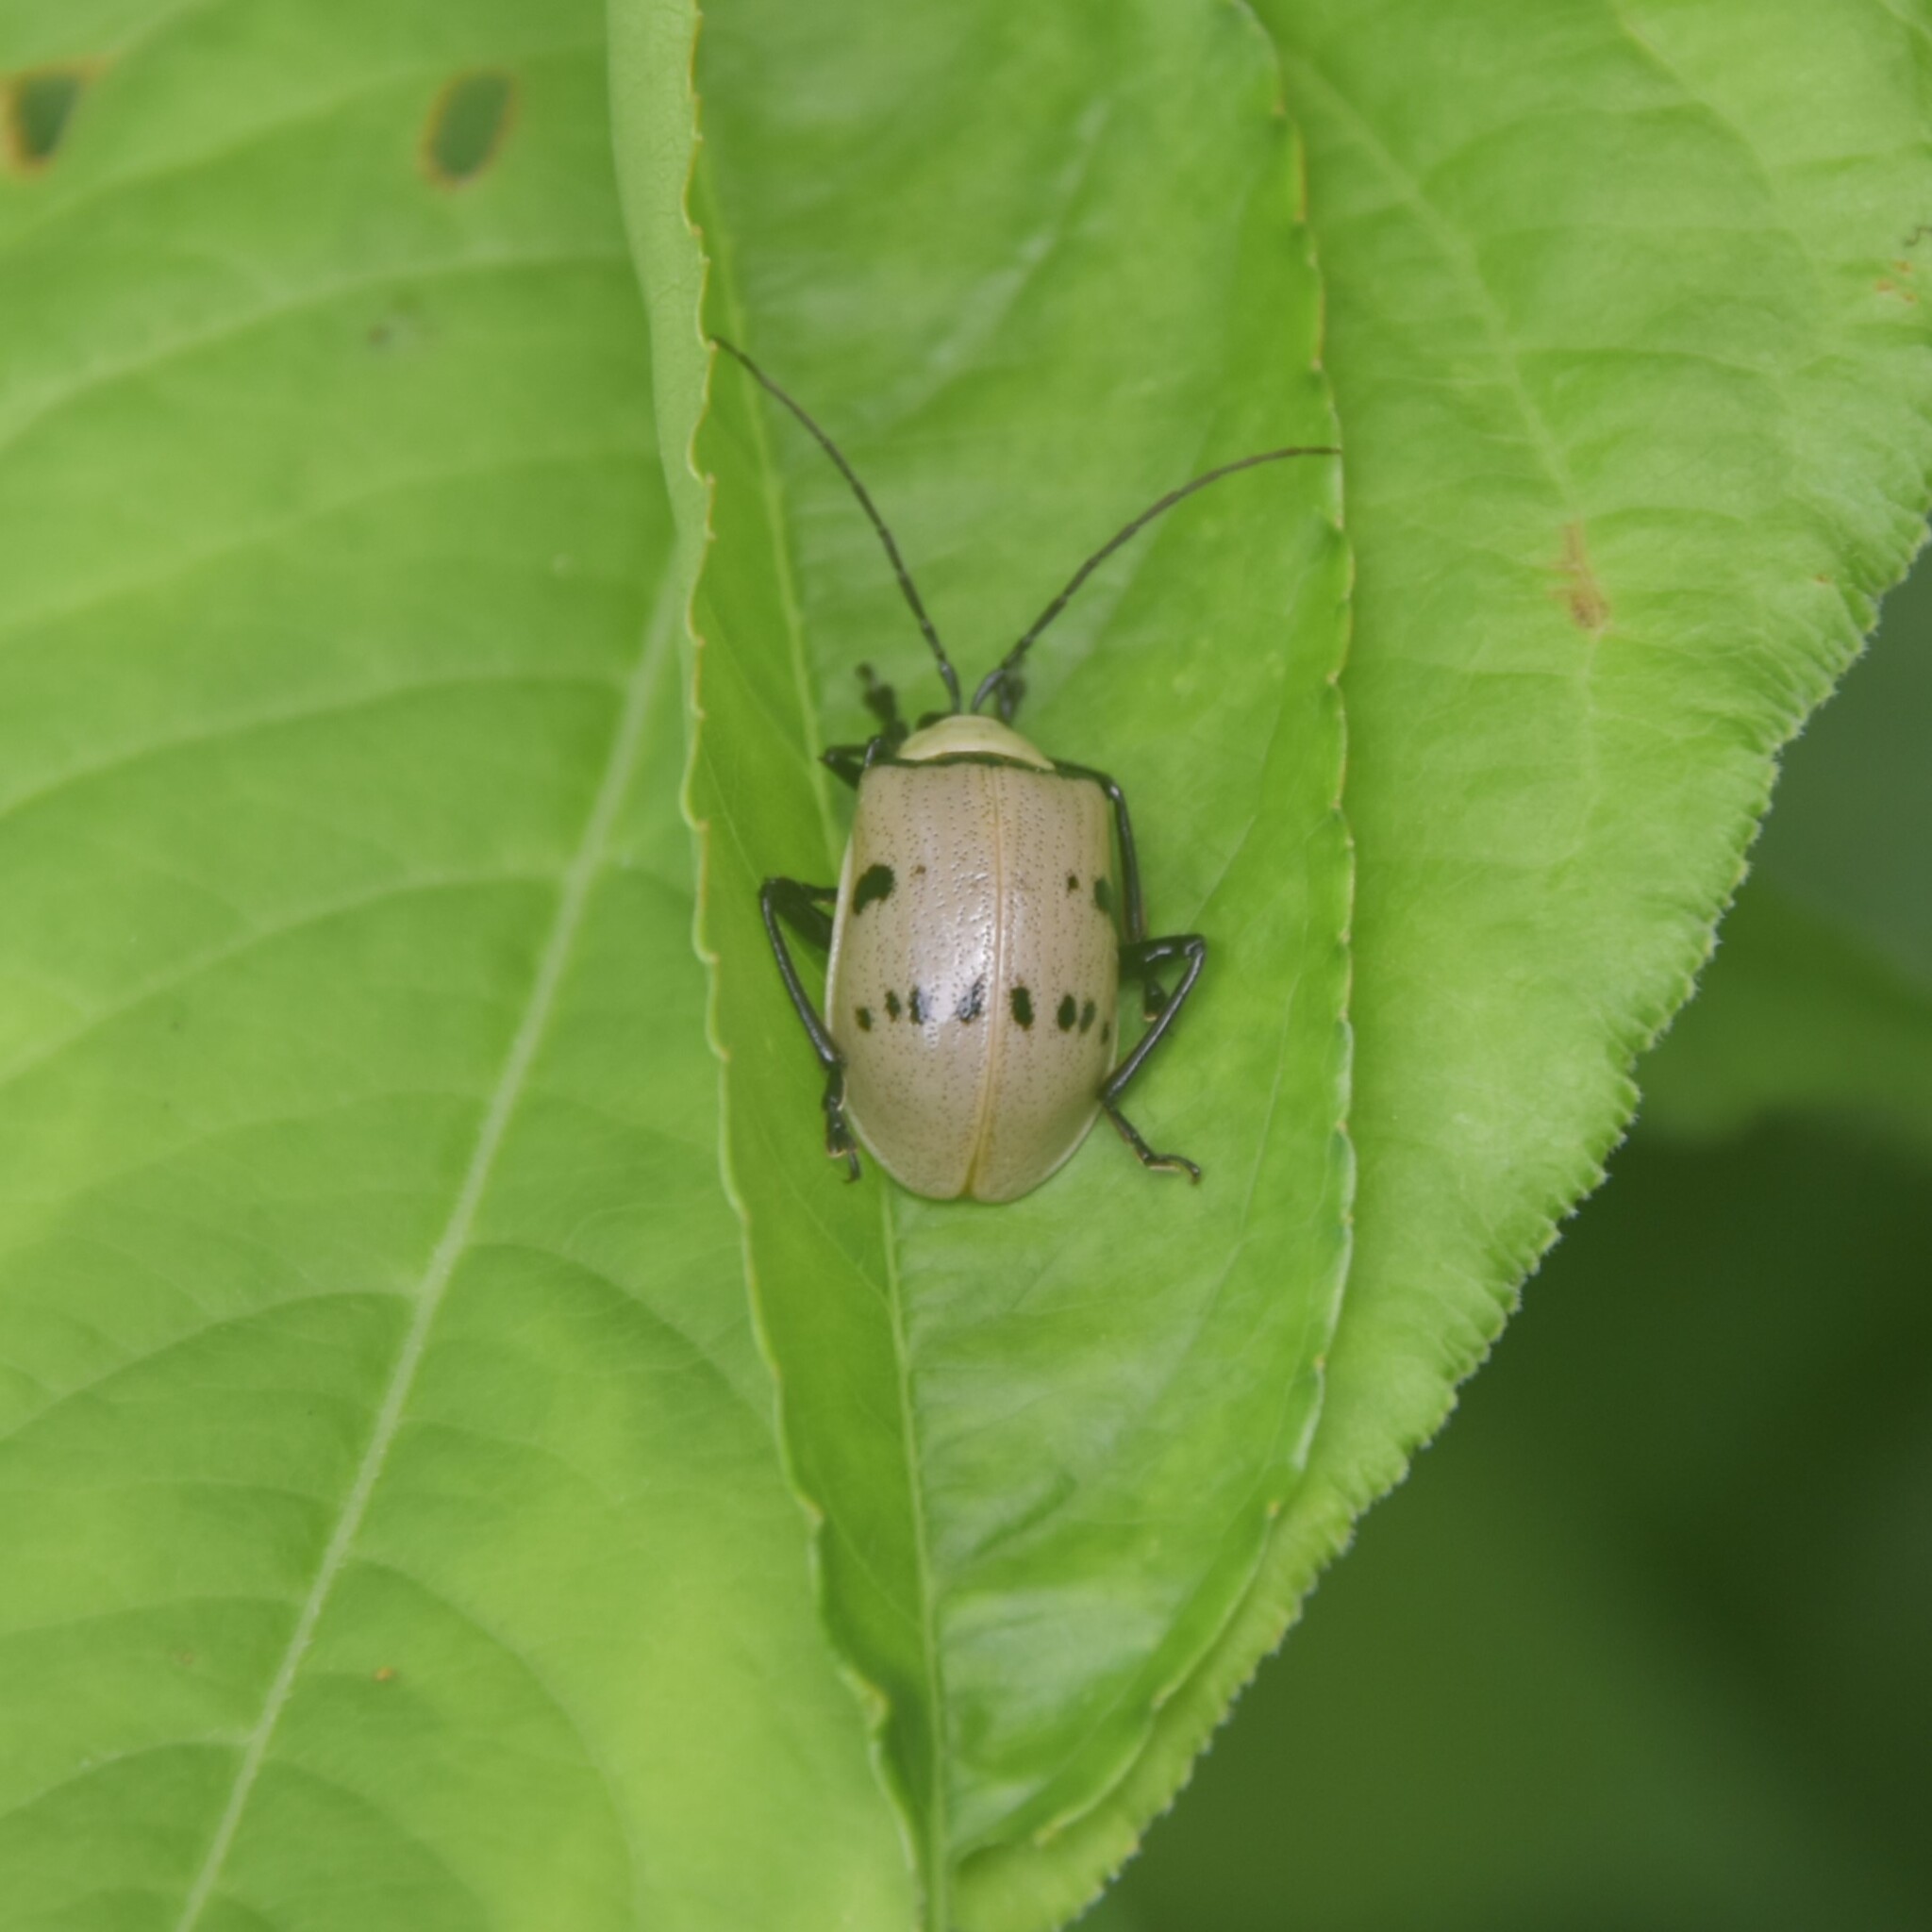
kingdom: Animalia
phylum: Arthropoda
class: Insecta
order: Coleoptera
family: Chrysomelidae
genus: Meristata
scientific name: Meristata
